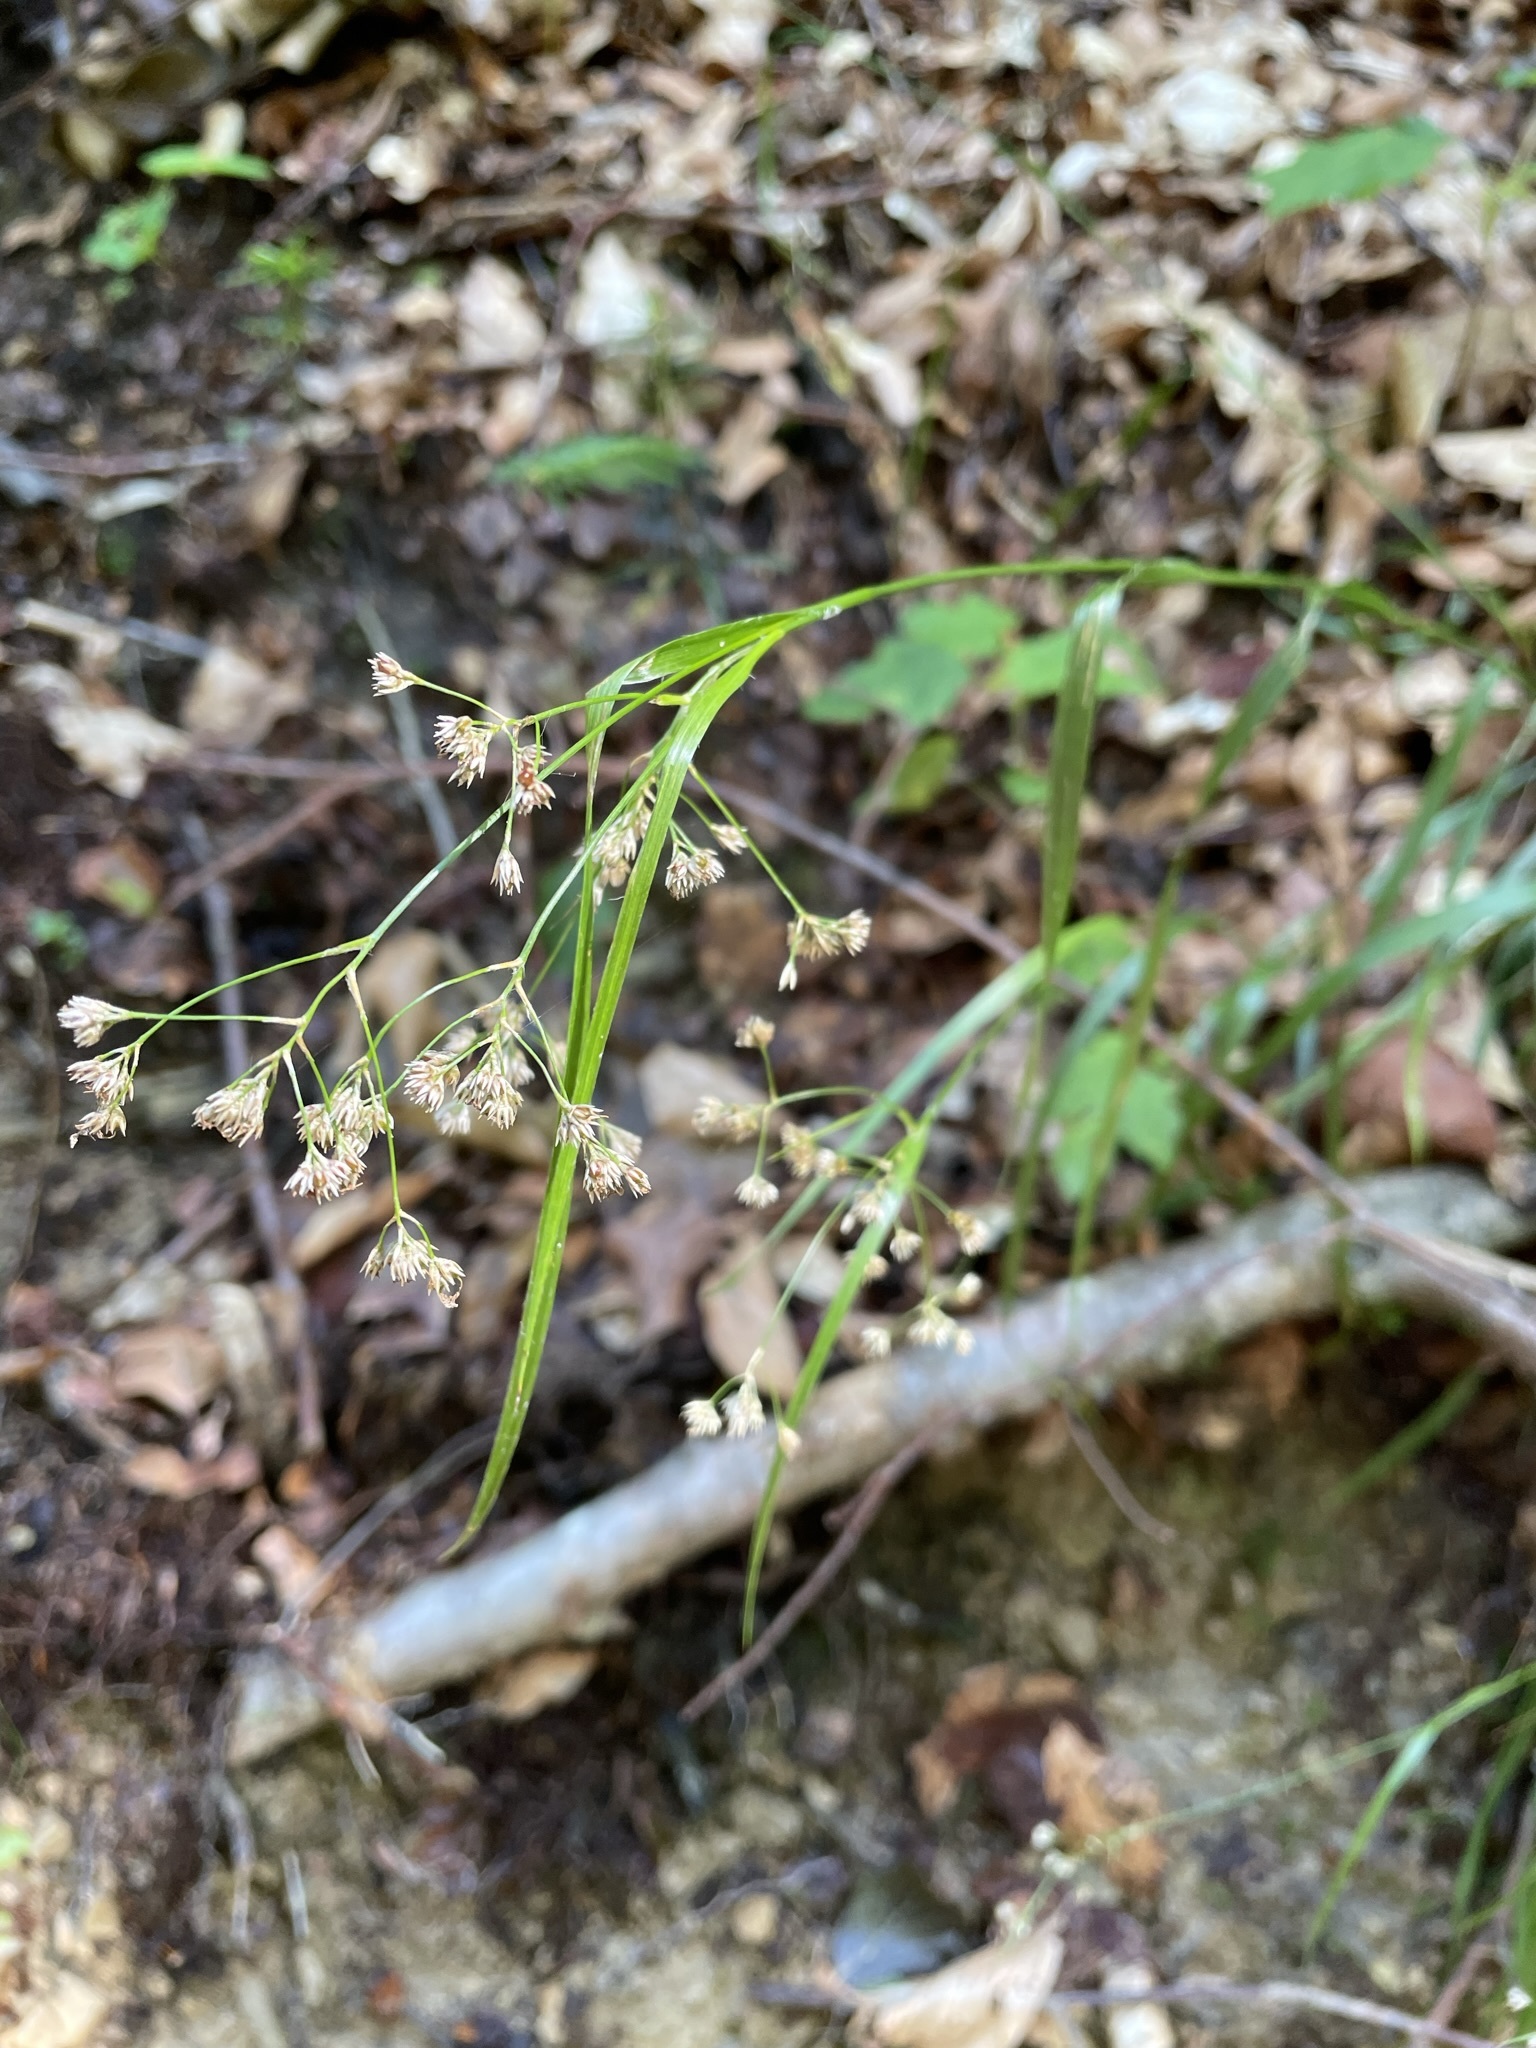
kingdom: Plantae
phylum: Tracheophyta
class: Liliopsida
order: Poales
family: Juncaceae
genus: Luzula
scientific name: Luzula luzuloides
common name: White wood-rush
